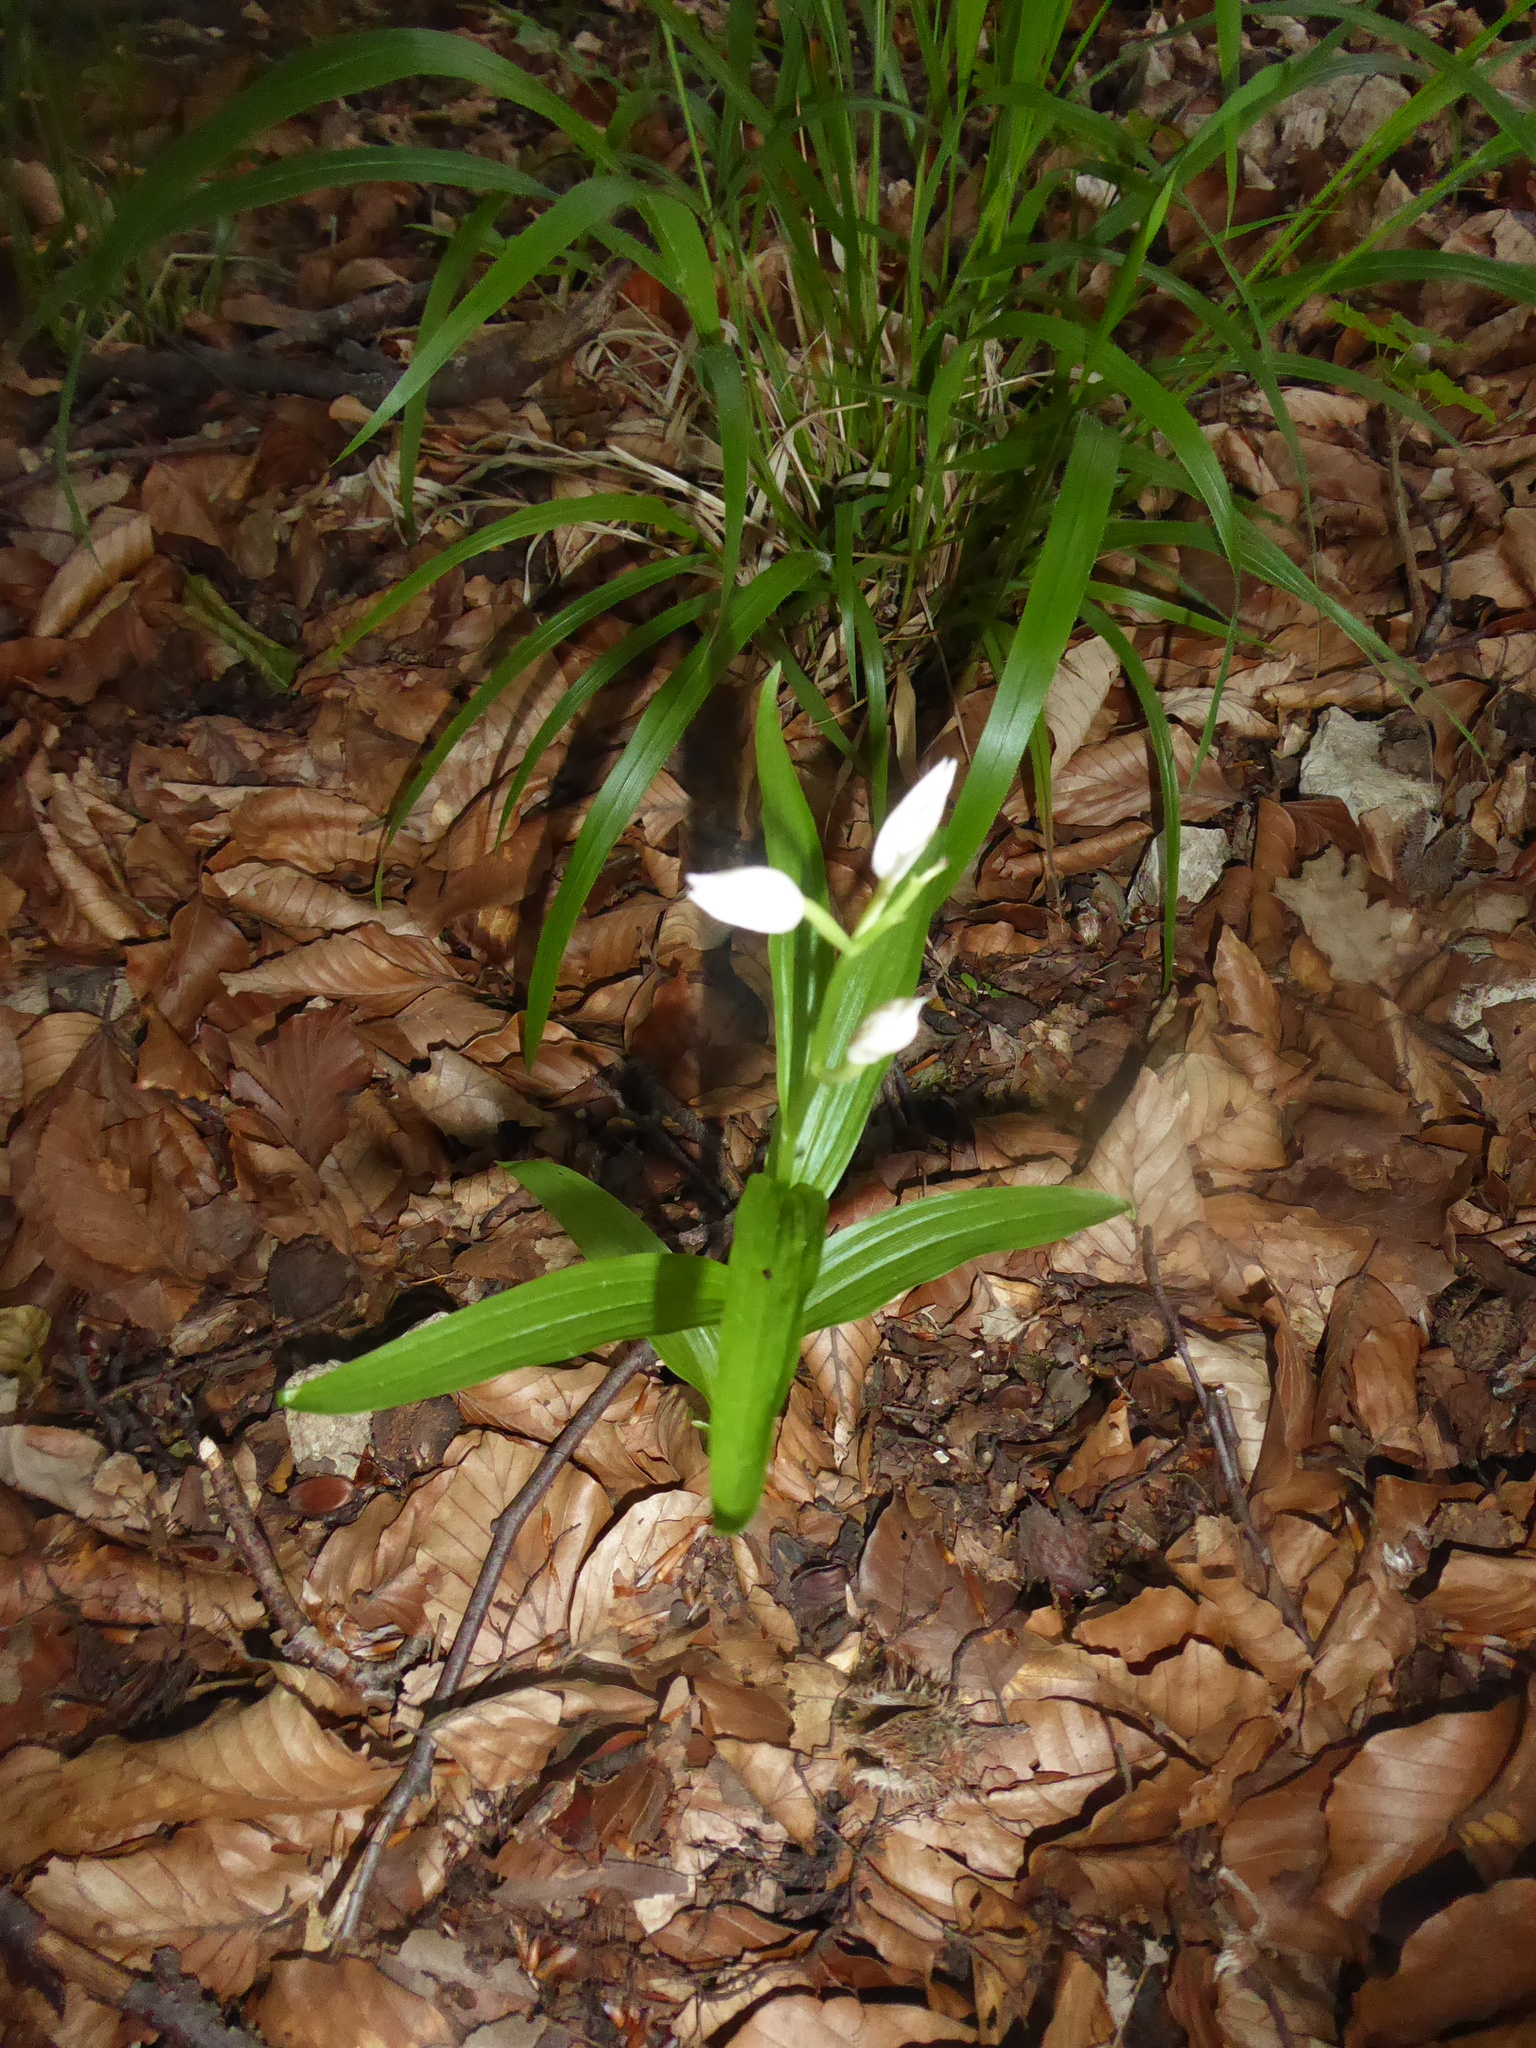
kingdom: Plantae
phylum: Tracheophyta
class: Liliopsida
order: Asparagales
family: Orchidaceae
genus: Cephalanthera
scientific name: Cephalanthera longifolia
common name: Narrow-leaved helleborine
